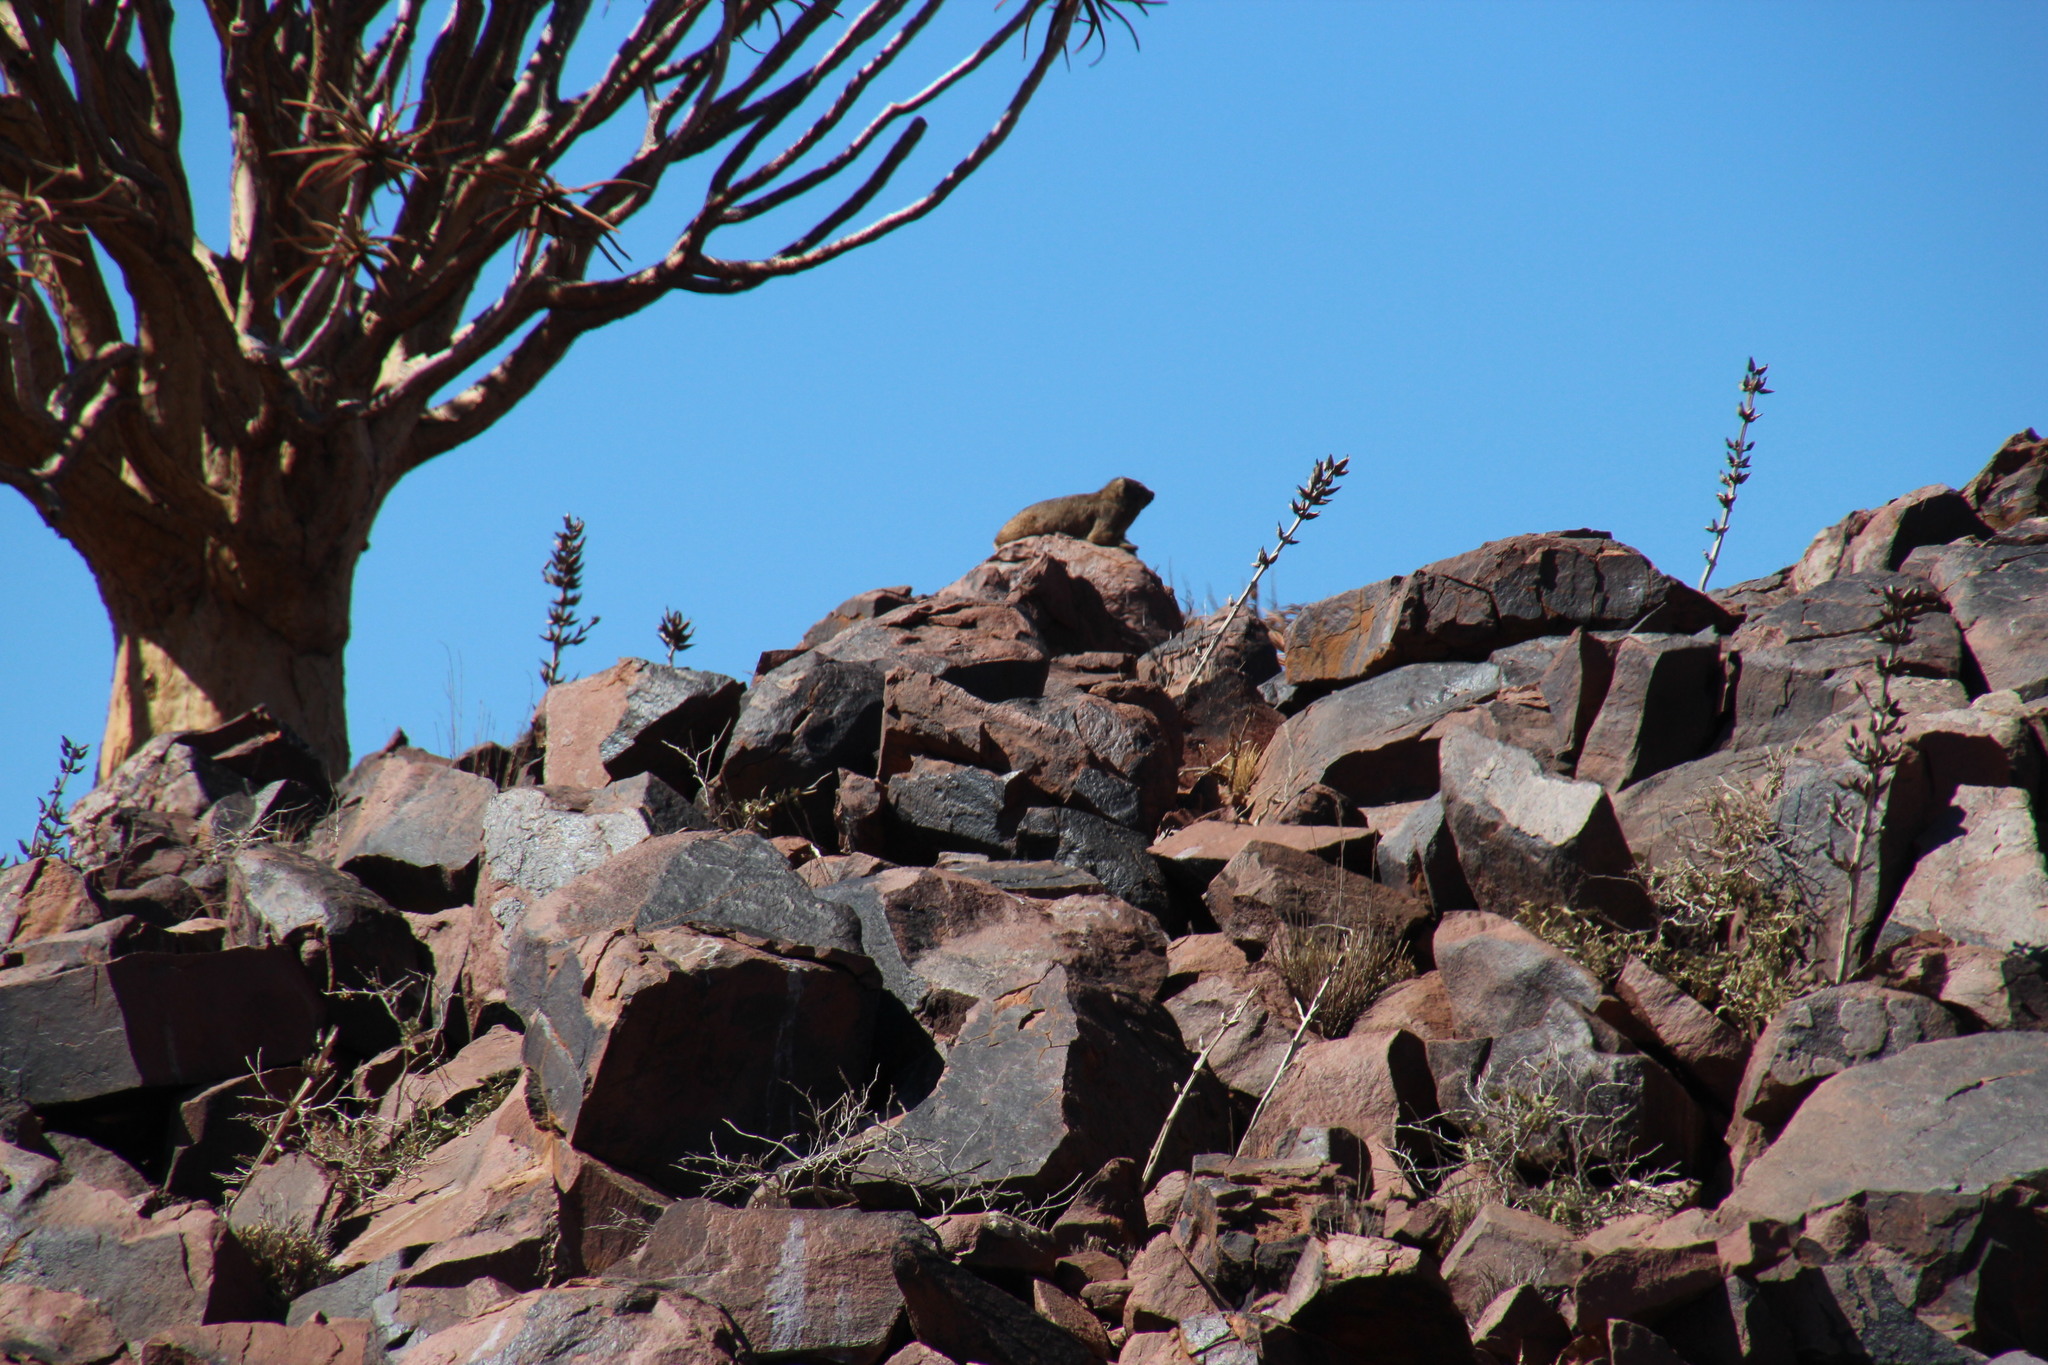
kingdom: Animalia
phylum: Chordata
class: Mammalia
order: Hyracoidea
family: Procaviidae
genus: Procavia
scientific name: Procavia capensis
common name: Rock hyrax
